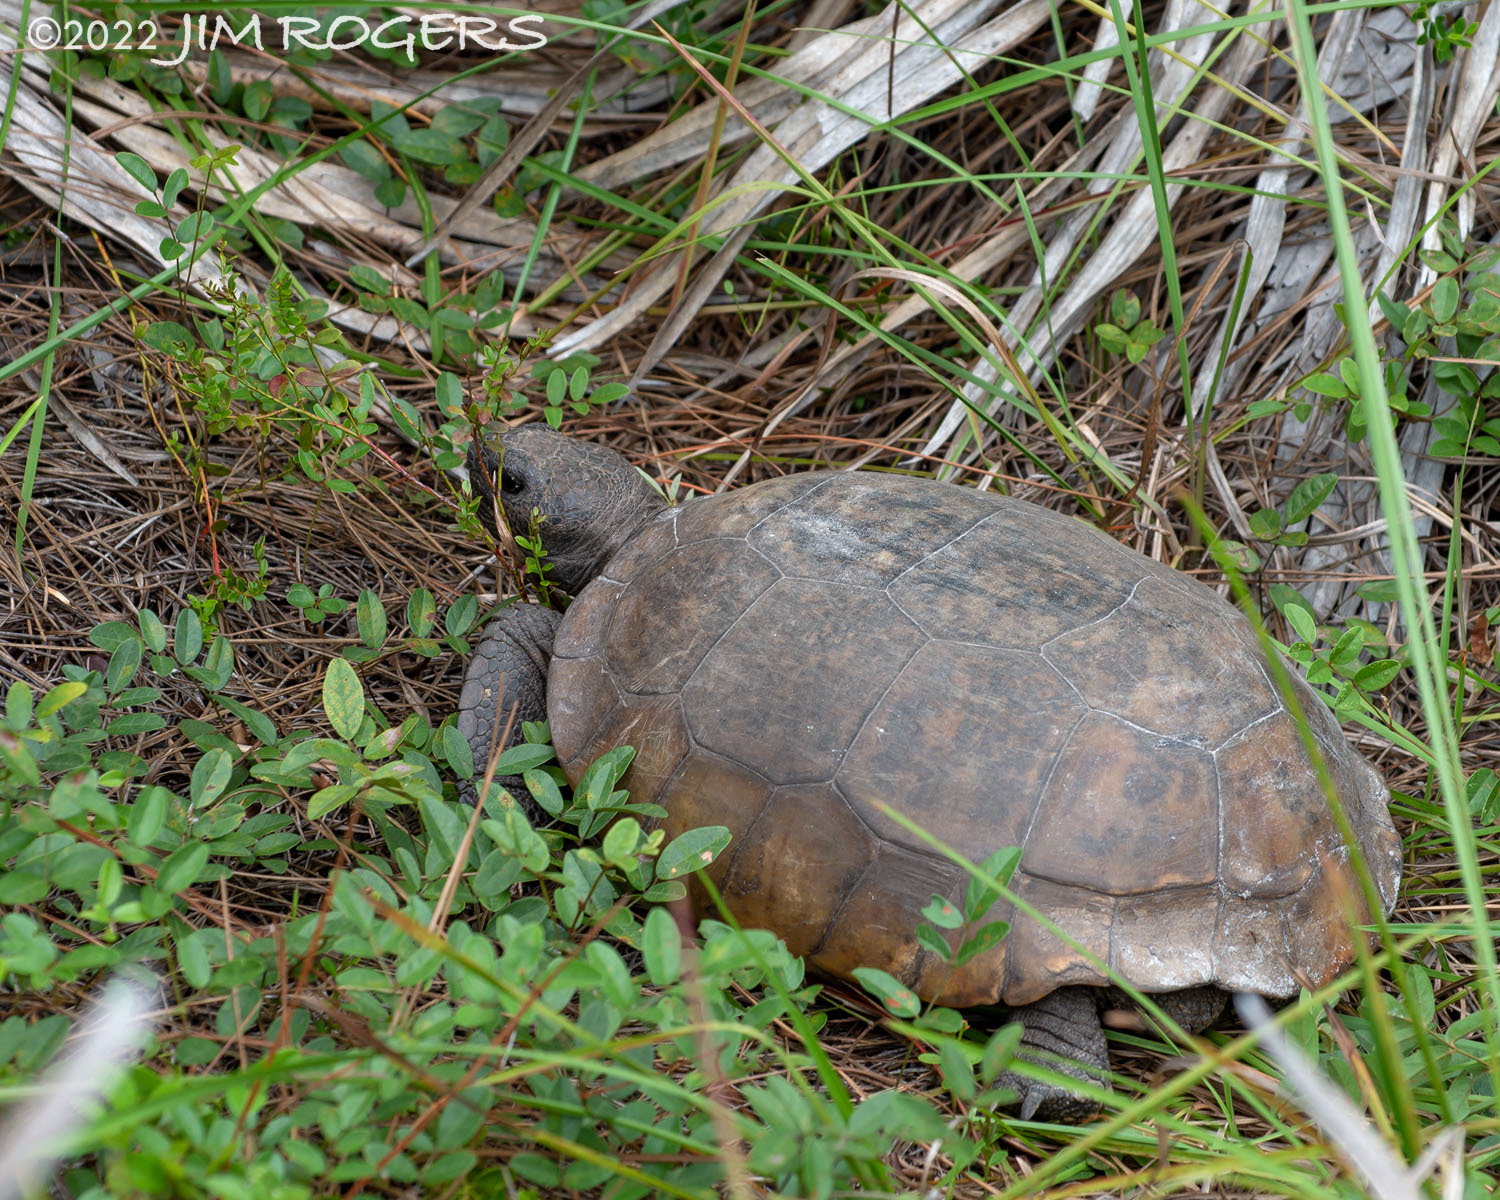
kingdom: Animalia
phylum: Chordata
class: Testudines
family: Testudinidae
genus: Gopherus
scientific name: Gopherus polyphemus
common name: Florida gopher tortoise
